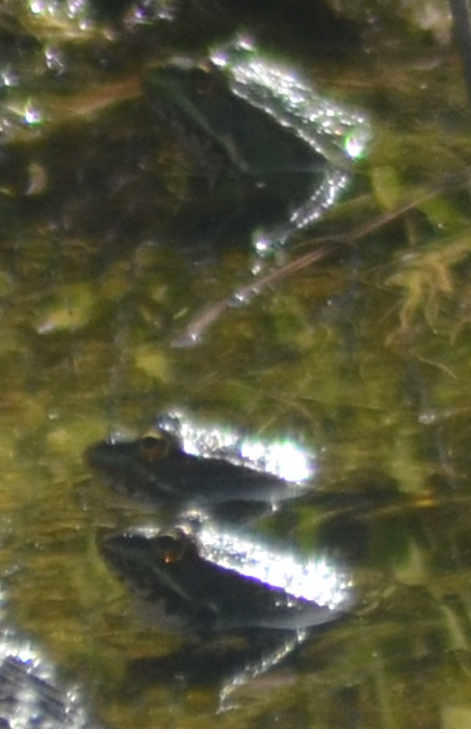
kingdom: Animalia
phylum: Chordata
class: Amphibia
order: Anura
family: Ranidae
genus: Pelophylax
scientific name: Pelophylax perezi
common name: Perez's frog
